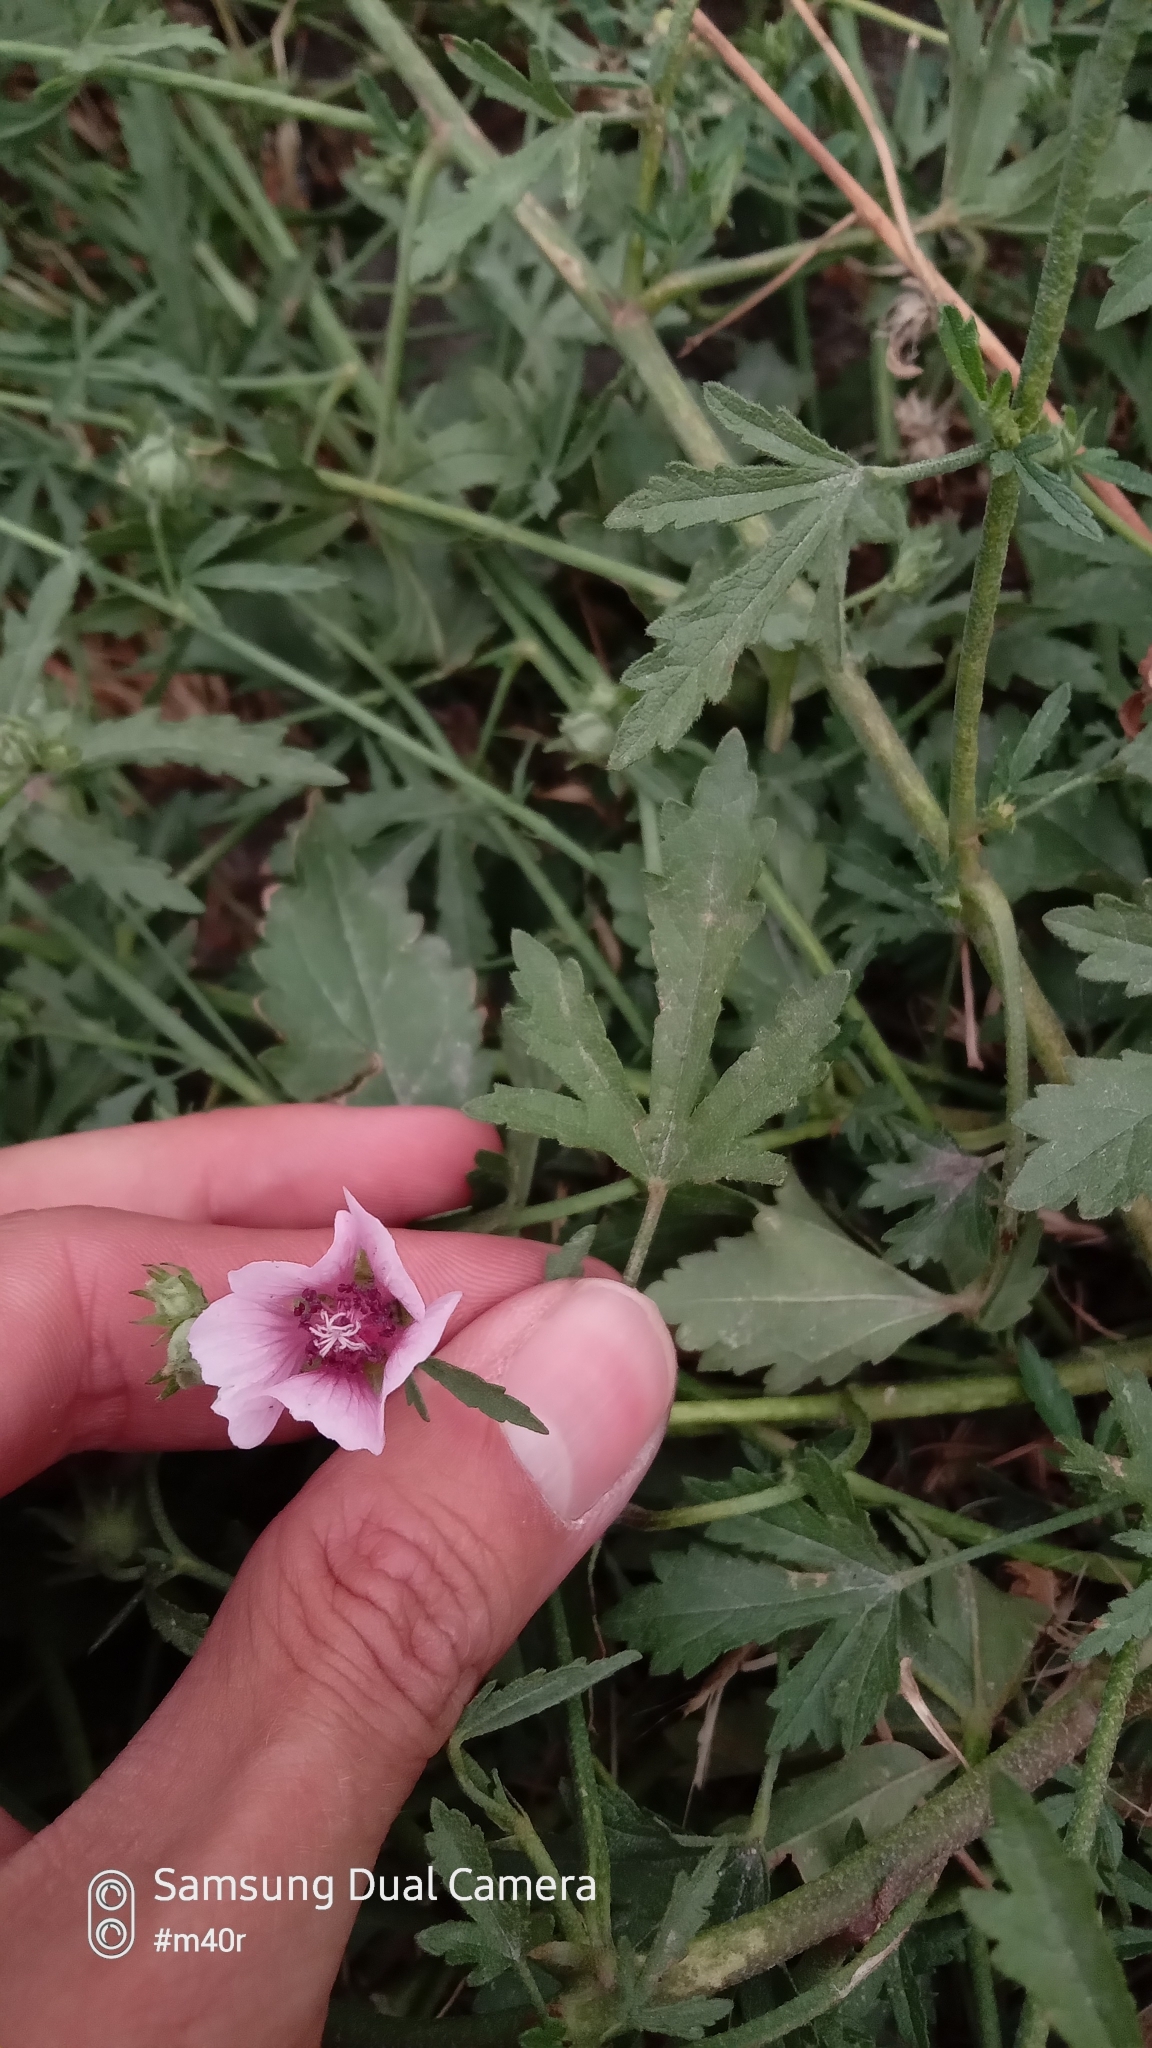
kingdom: Plantae
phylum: Tracheophyta
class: Magnoliopsida
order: Malvales
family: Malvaceae
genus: Althaea
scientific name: Althaea armeniaca
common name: Armenian marshmallow
